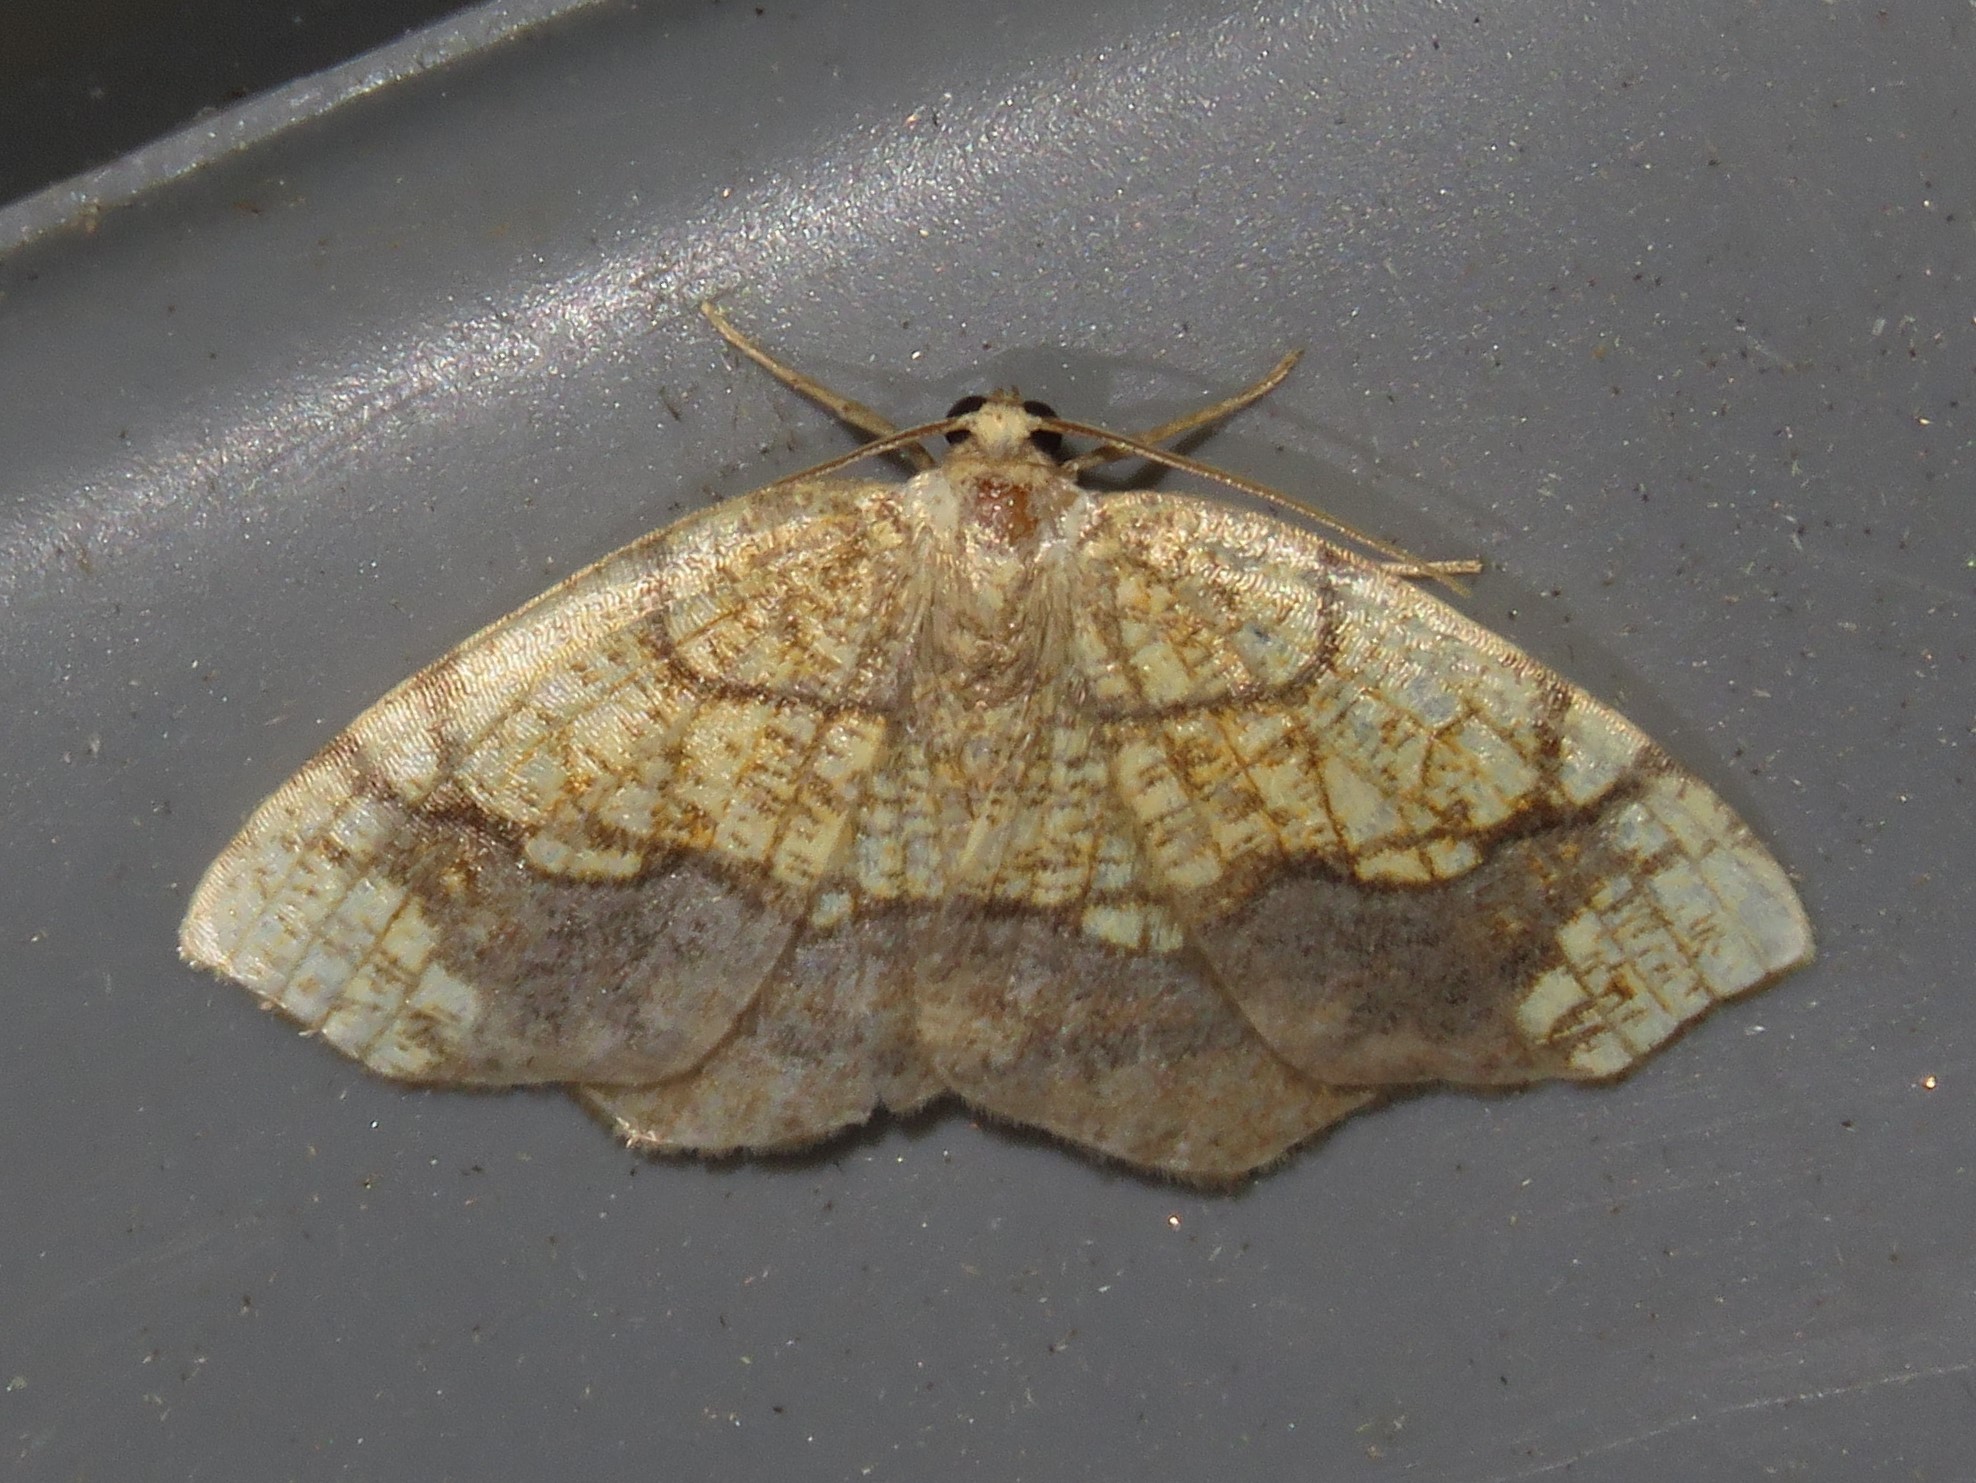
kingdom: Animalia
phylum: Arthropoda
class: Insecta
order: Lepidoptera
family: Geometridae
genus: Nematocampa
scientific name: Nematocampa resistaria
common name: Horned spanworm moth
